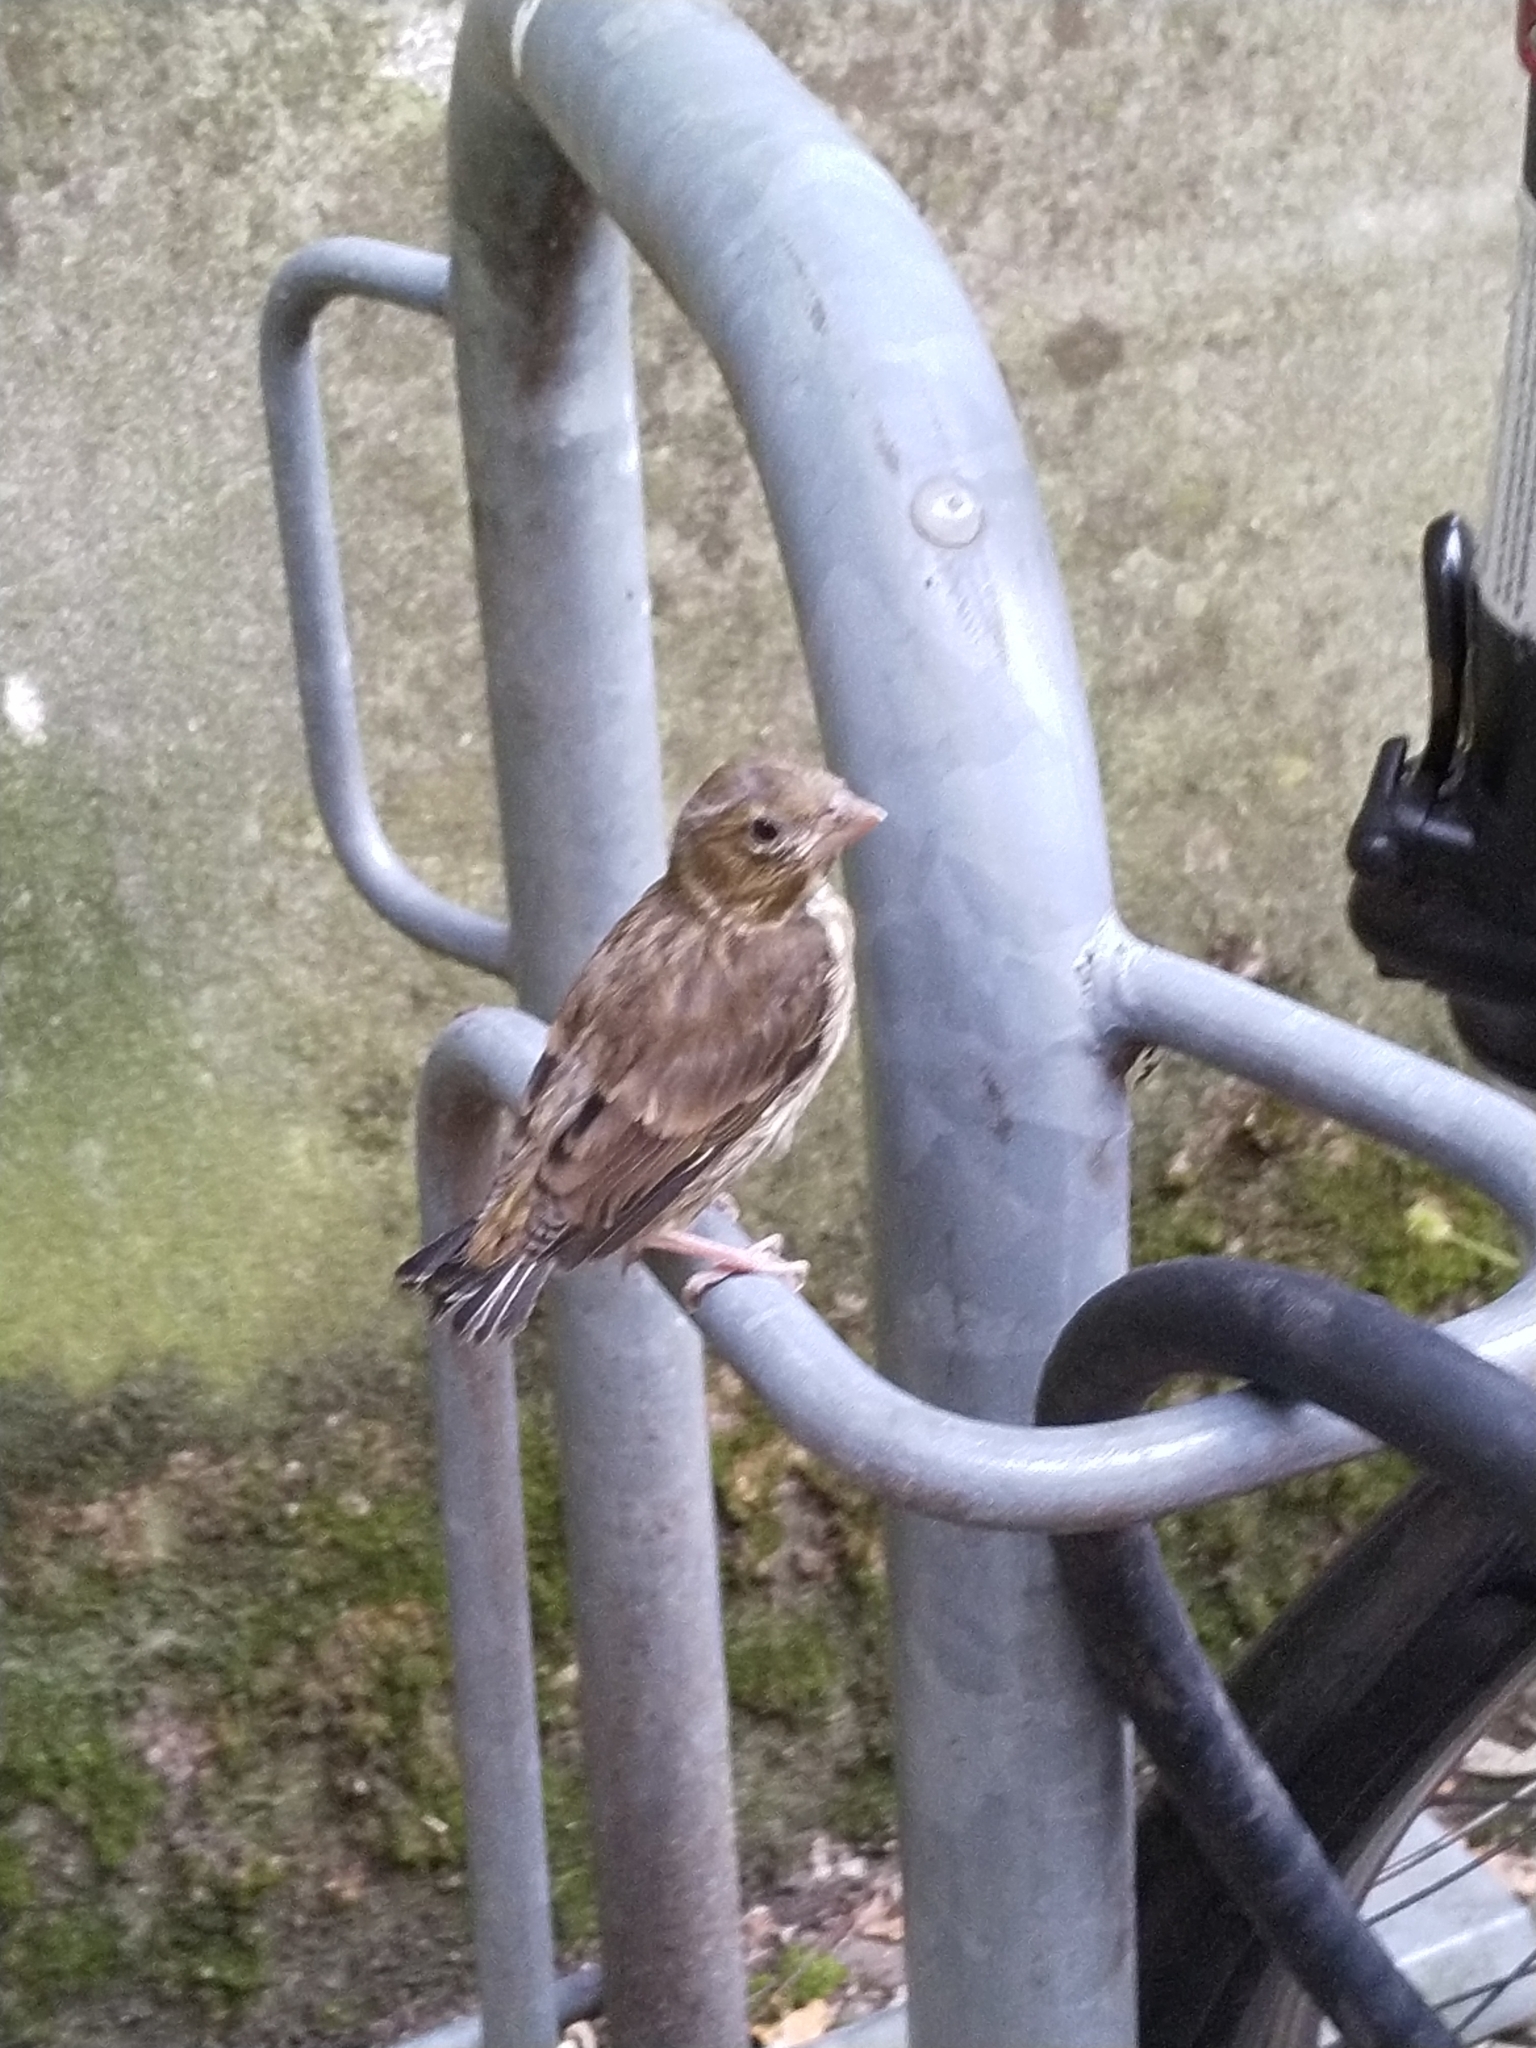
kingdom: Plantae
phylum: Tracheophyta
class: Liliopsida
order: Poales
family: Poaceae
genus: Chloris
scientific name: Chloris chloris
